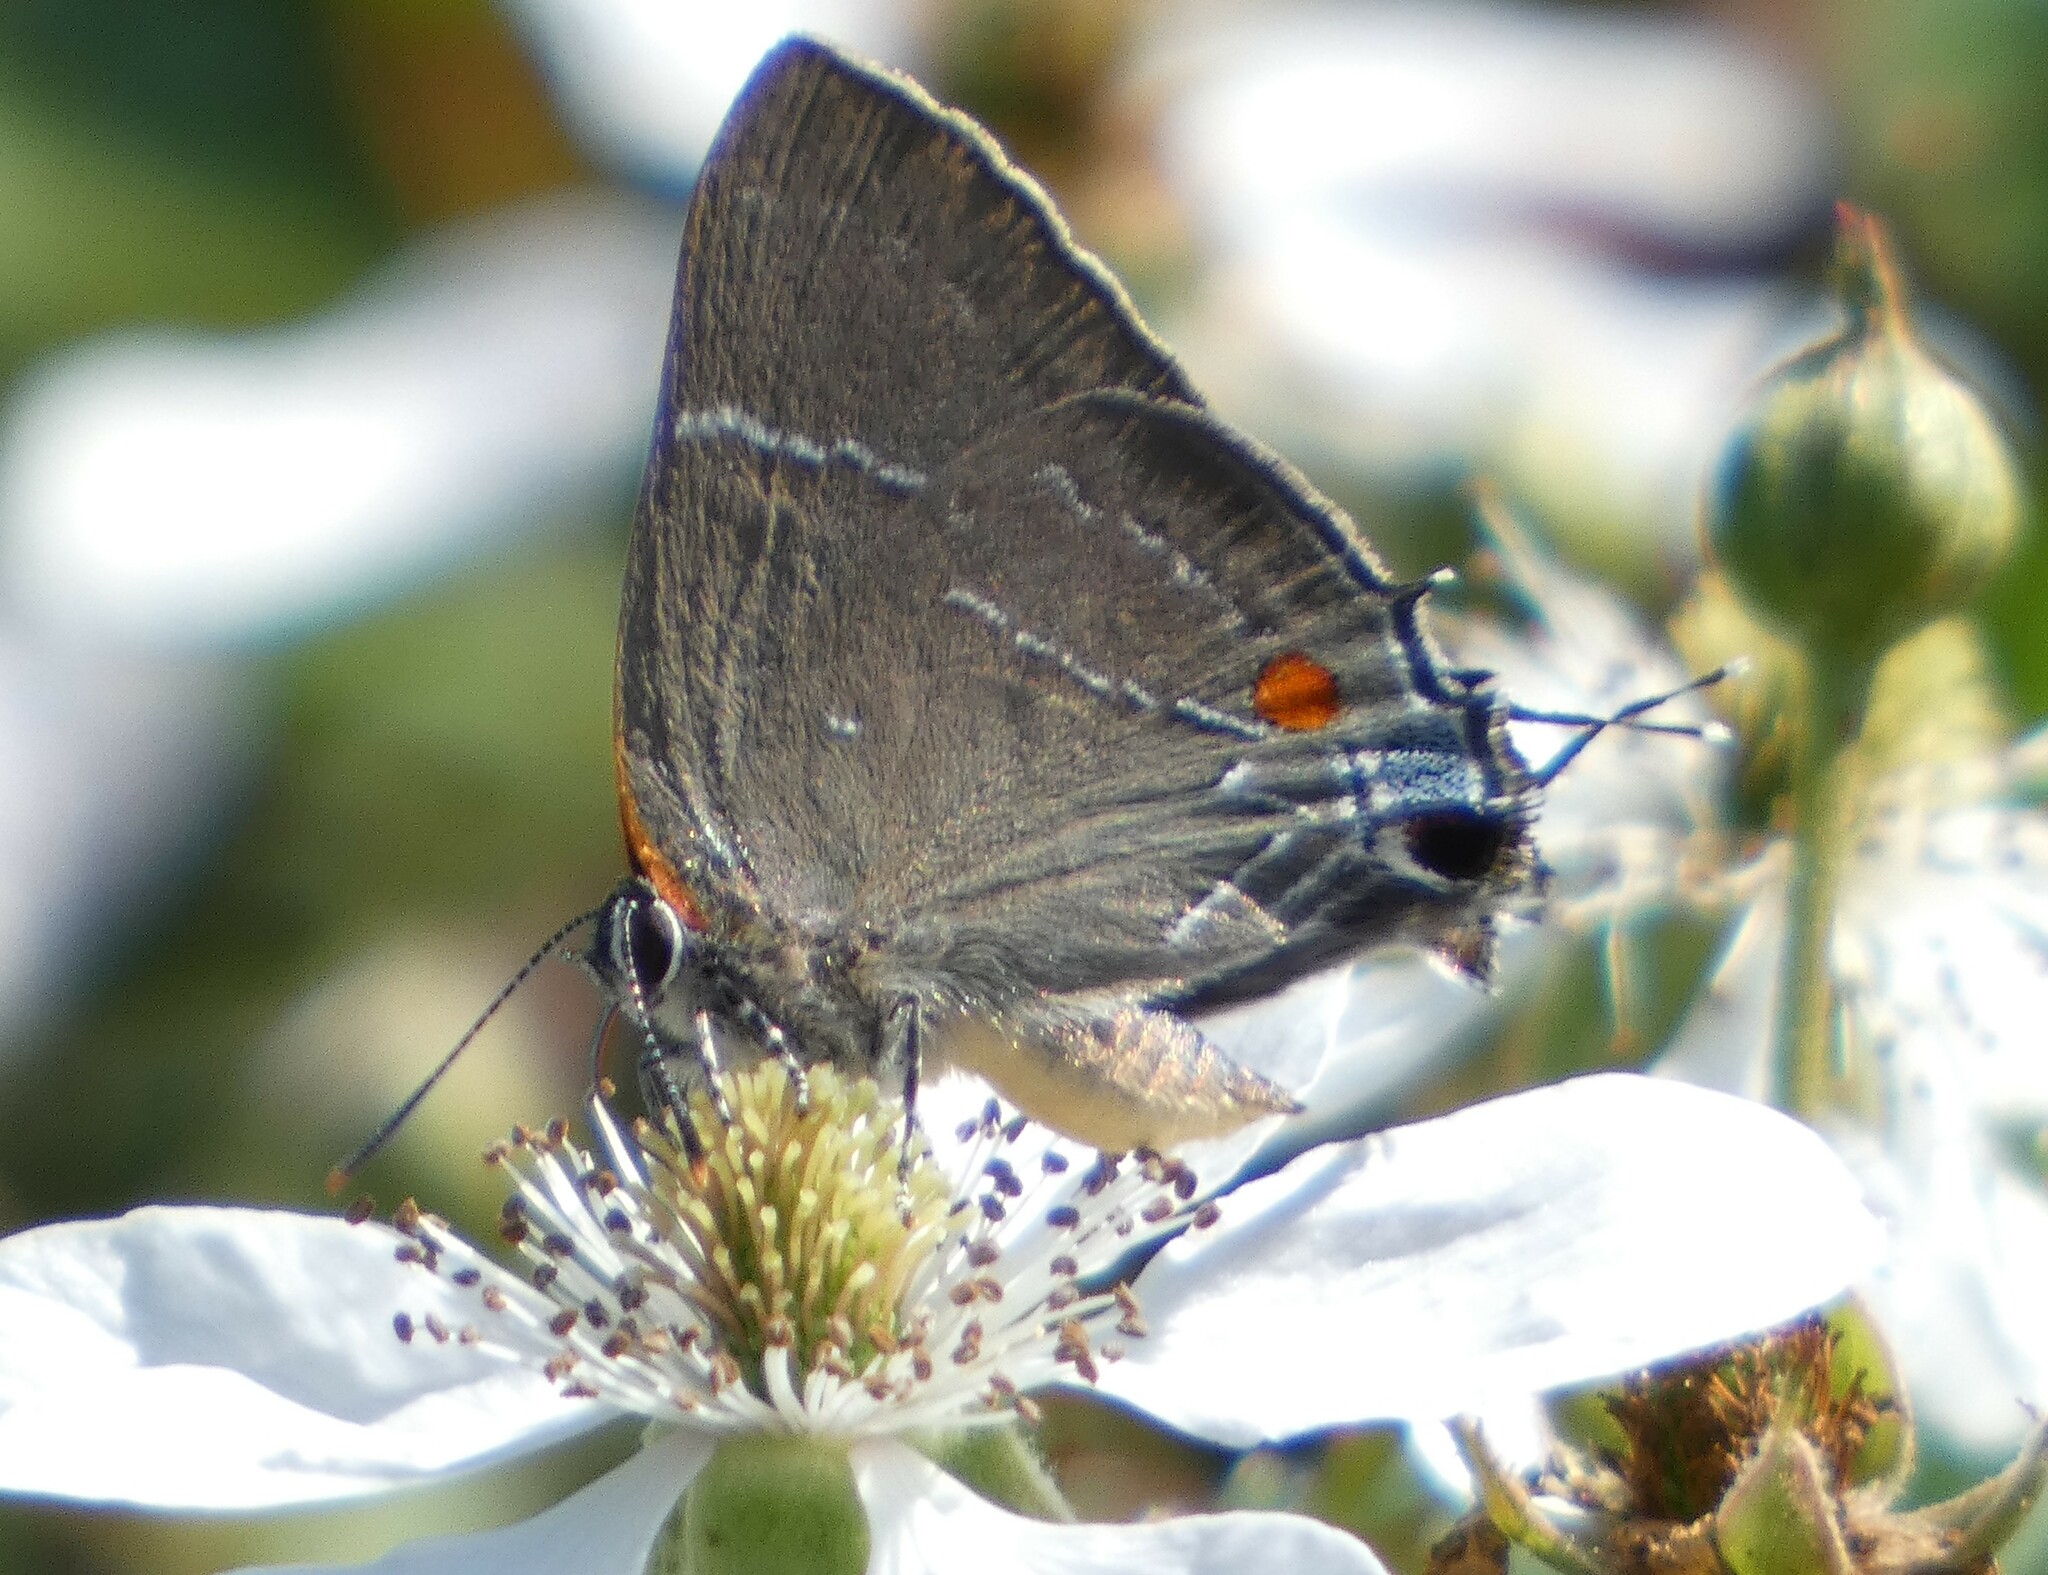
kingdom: Animalia
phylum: Arthropoda
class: Insecta
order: Lepidoptera
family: Lycaenidae
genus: Parrhasius
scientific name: Parrhasius m-album
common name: White m hairstreak
